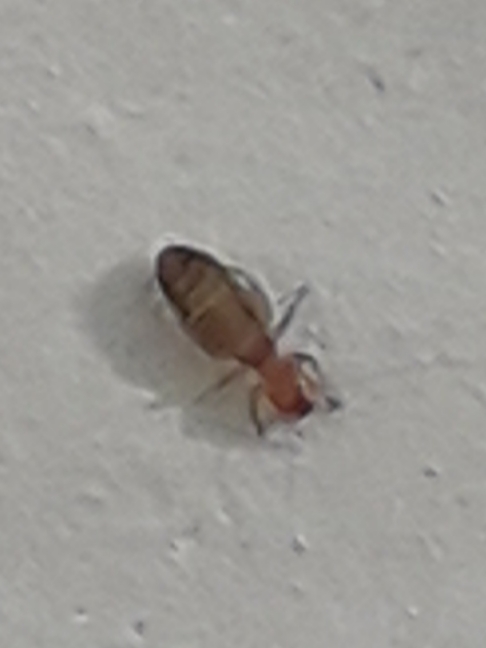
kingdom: Animalia
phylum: Arthropoda
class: Insecta
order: Psocodea
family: Liposcelididae
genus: Liposcelis
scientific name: Liposcelis bostrychophila
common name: Bark lice
